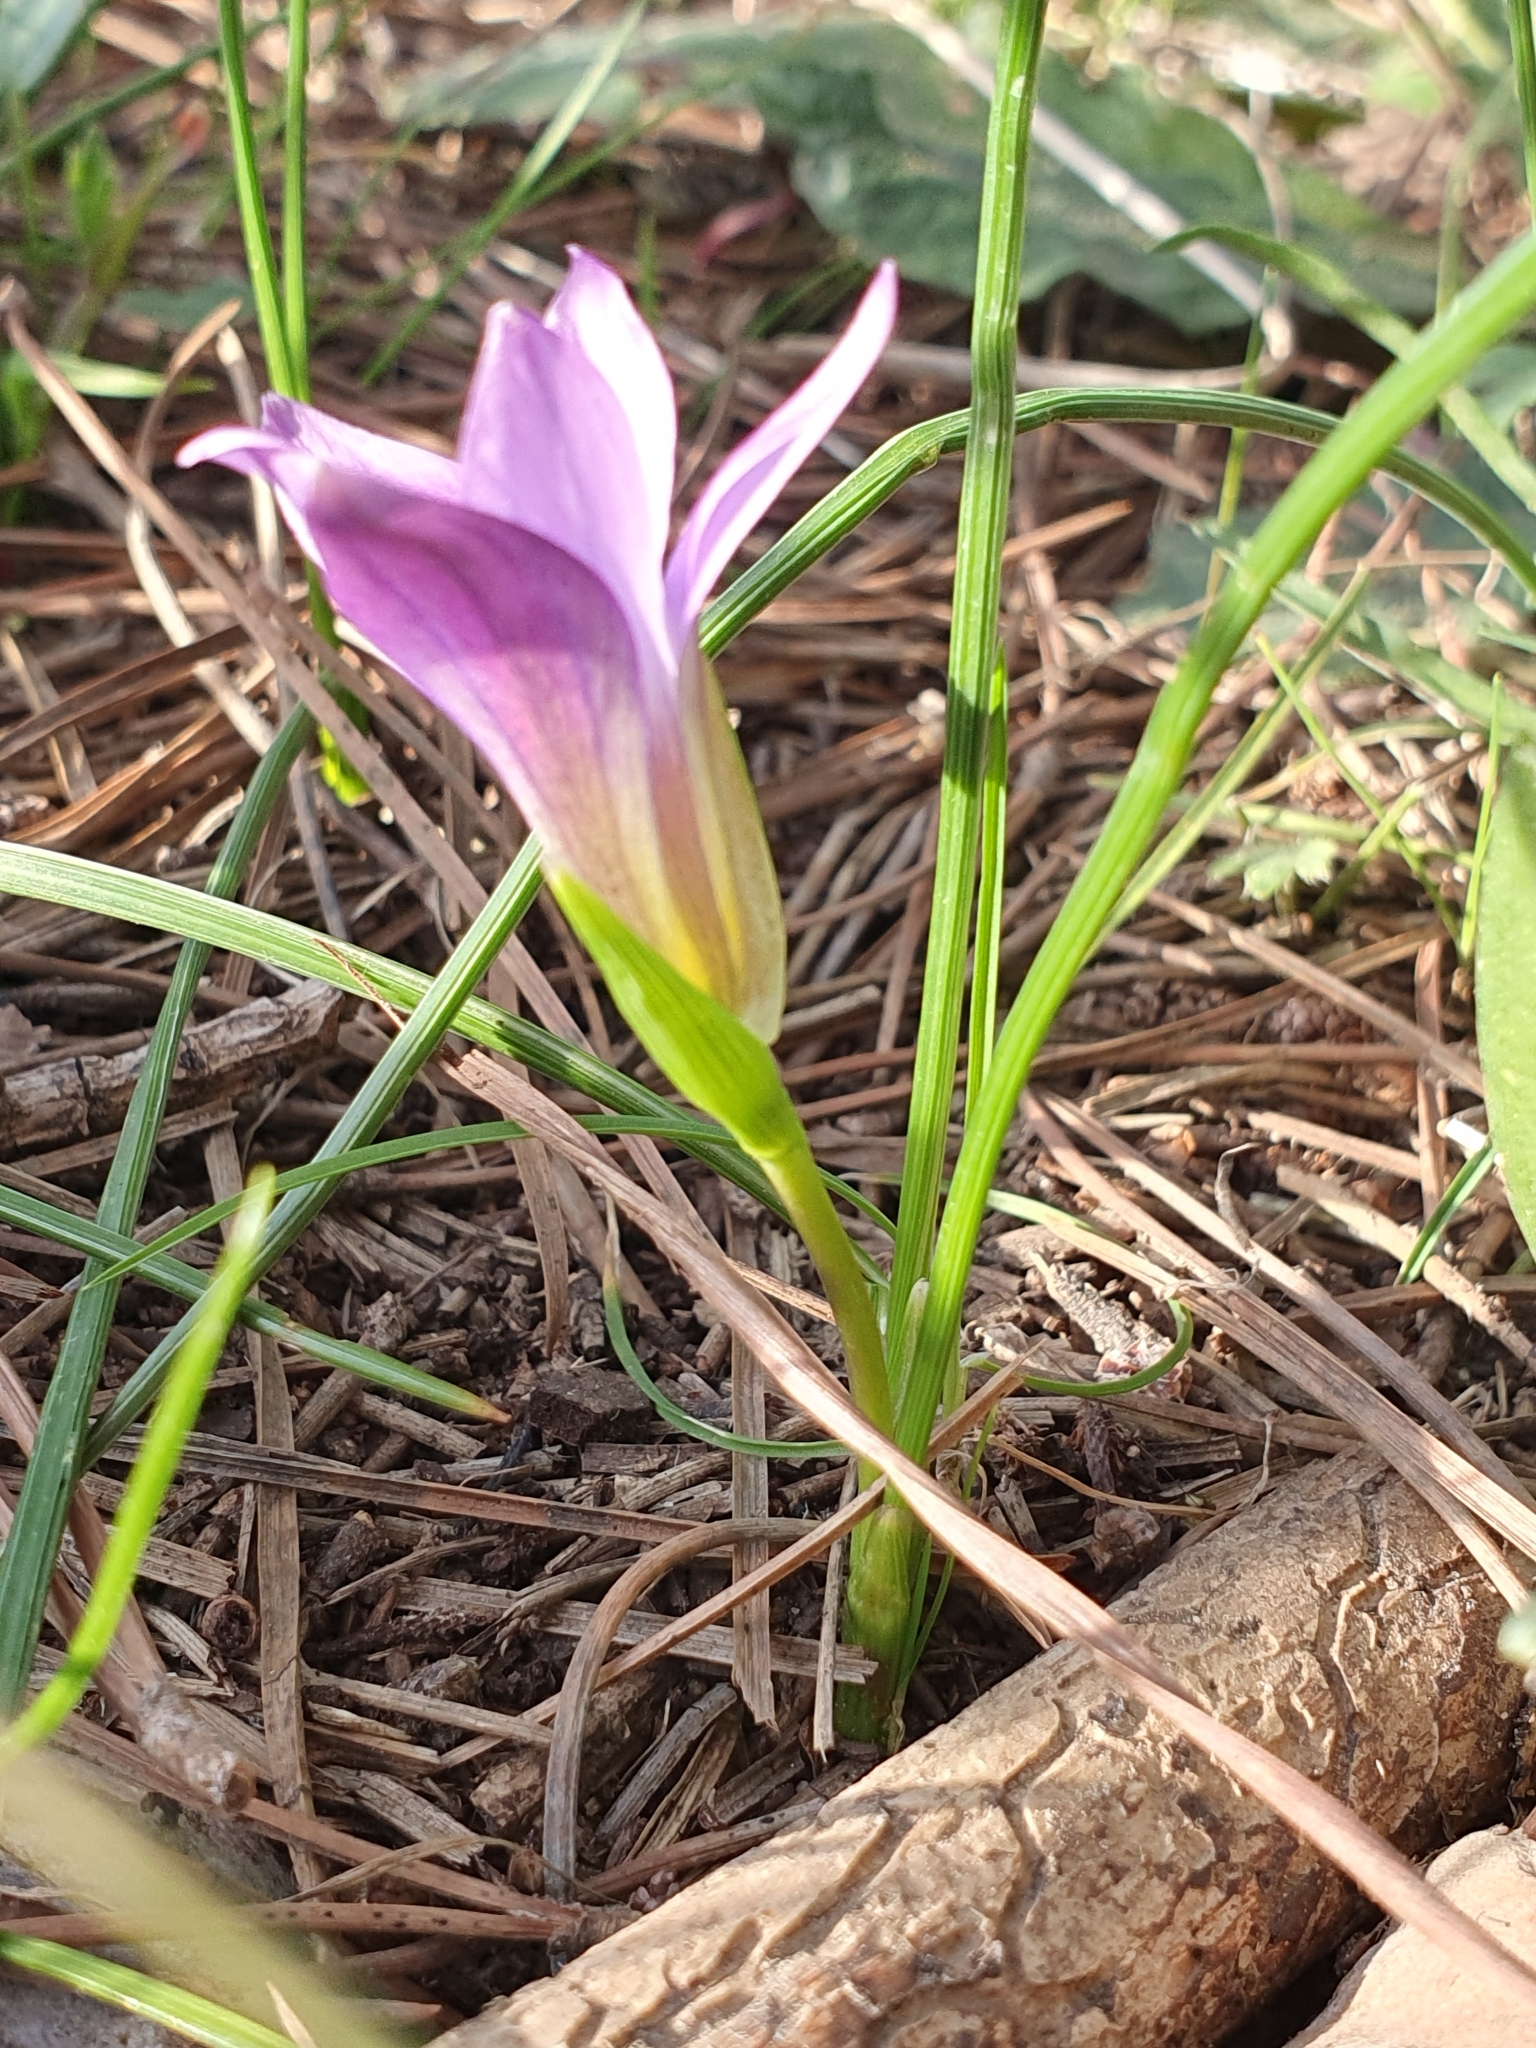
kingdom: Plantae
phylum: Tracheophyta
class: Liliopsida
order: Asparagales
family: Iridaceae
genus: Romulea
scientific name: Romulea bulbocodium
